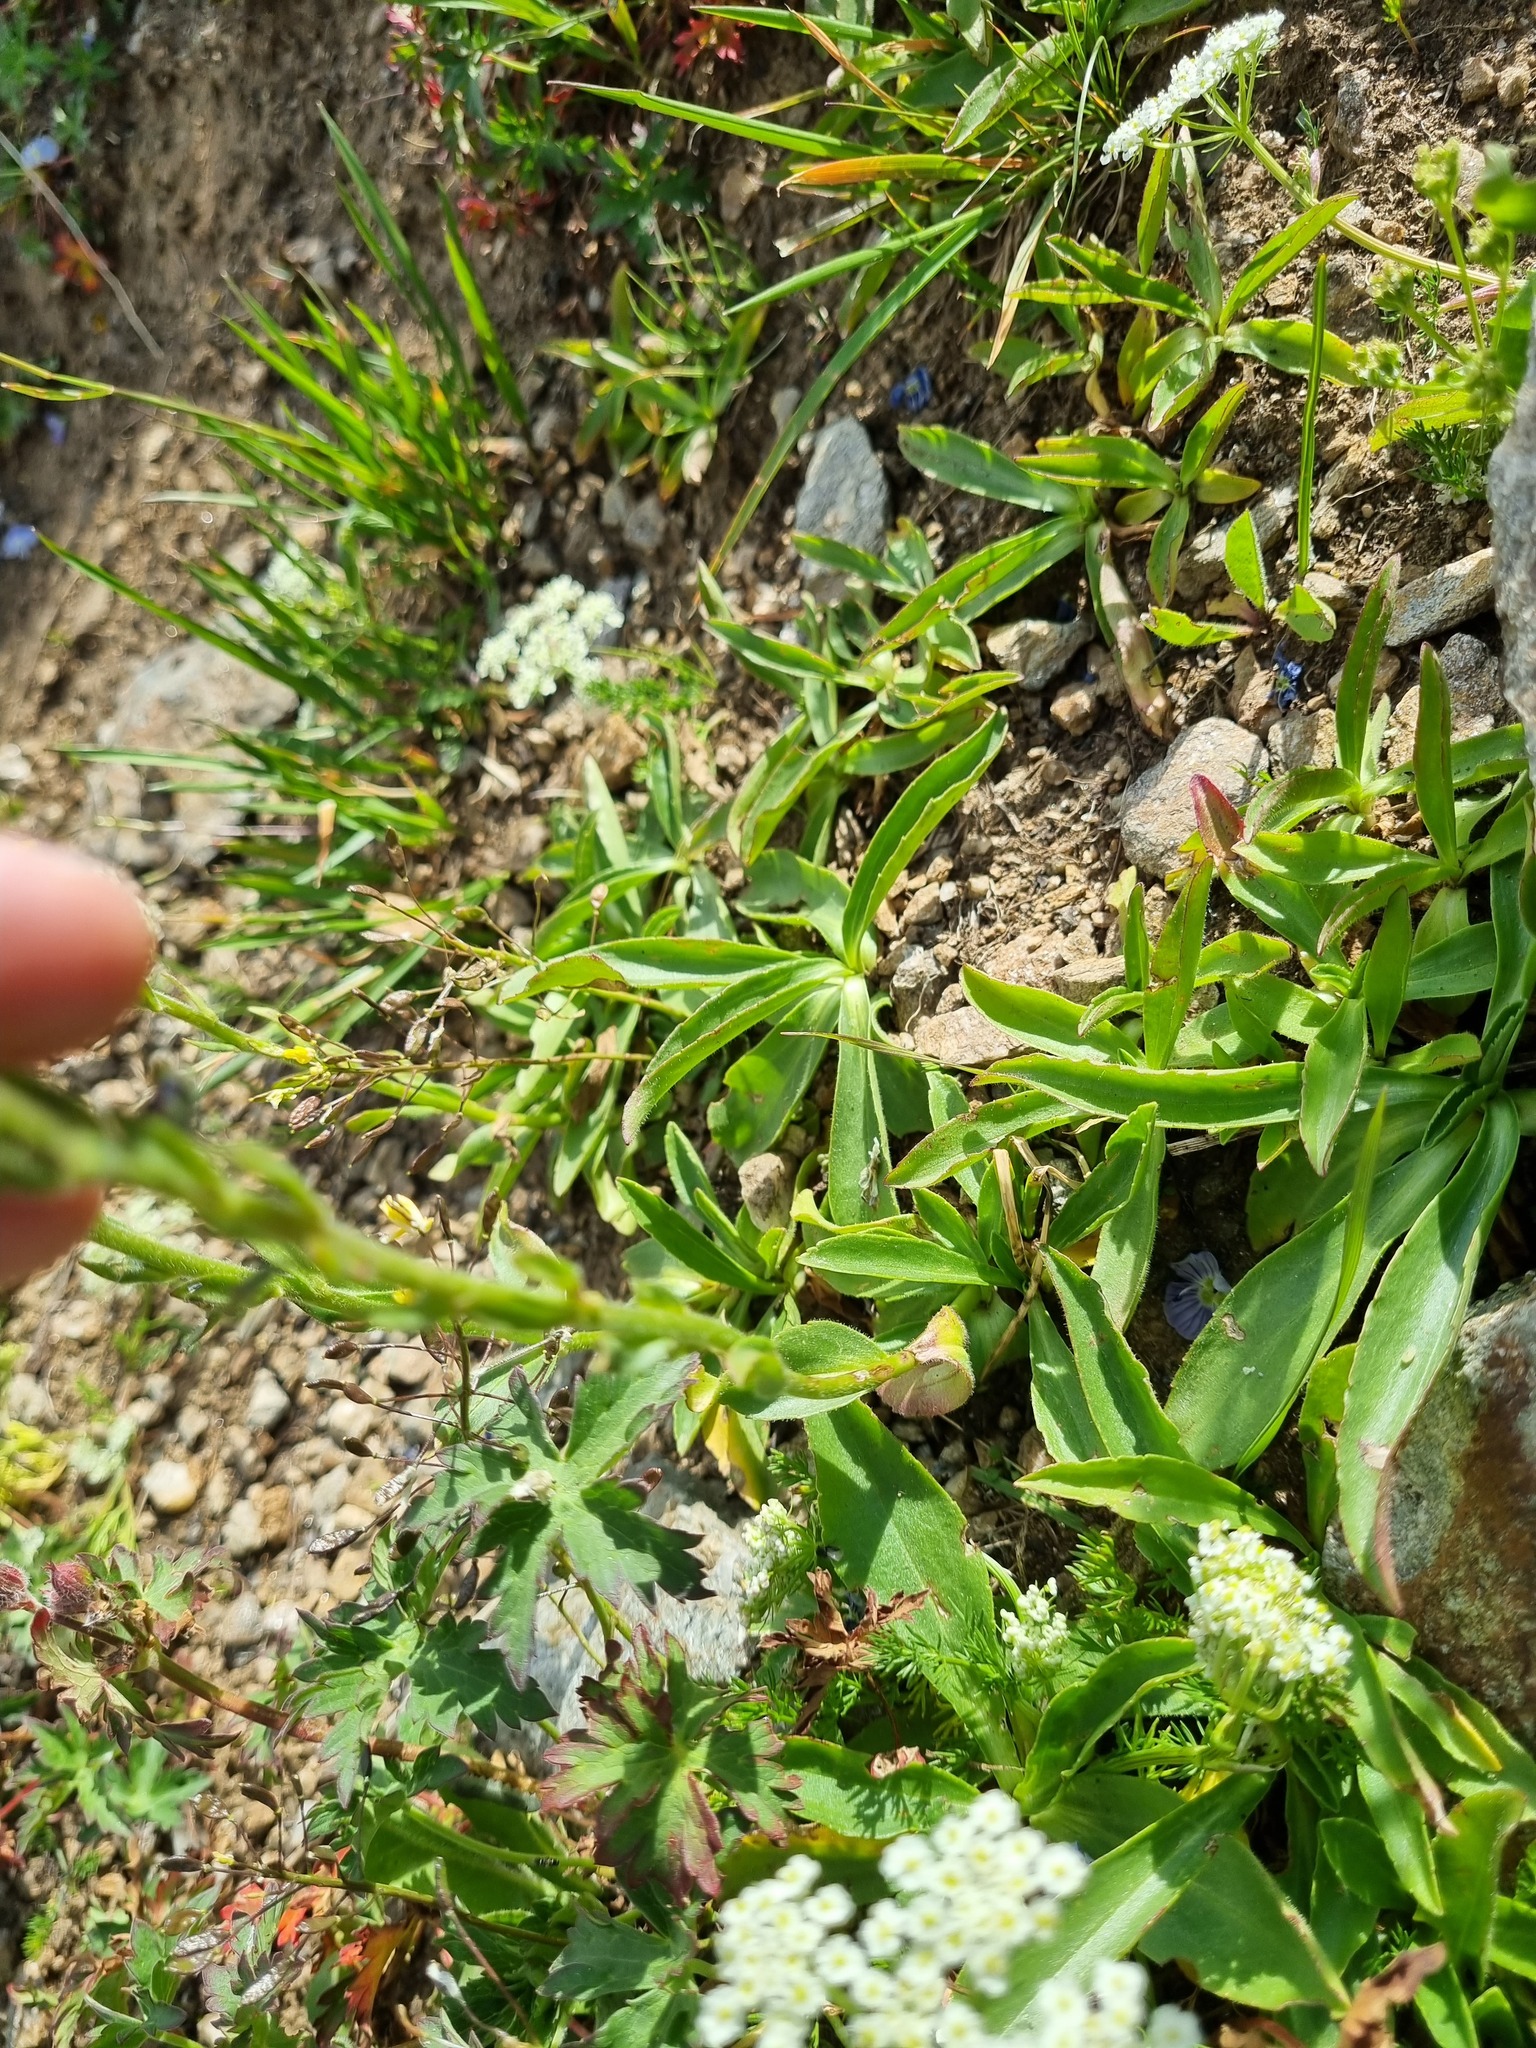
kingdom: Plantae
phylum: Tracheophyta
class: Magnoliopsida
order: Lamiales
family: Plantaginaceae
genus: Veronica
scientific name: Veronica gentianoides
